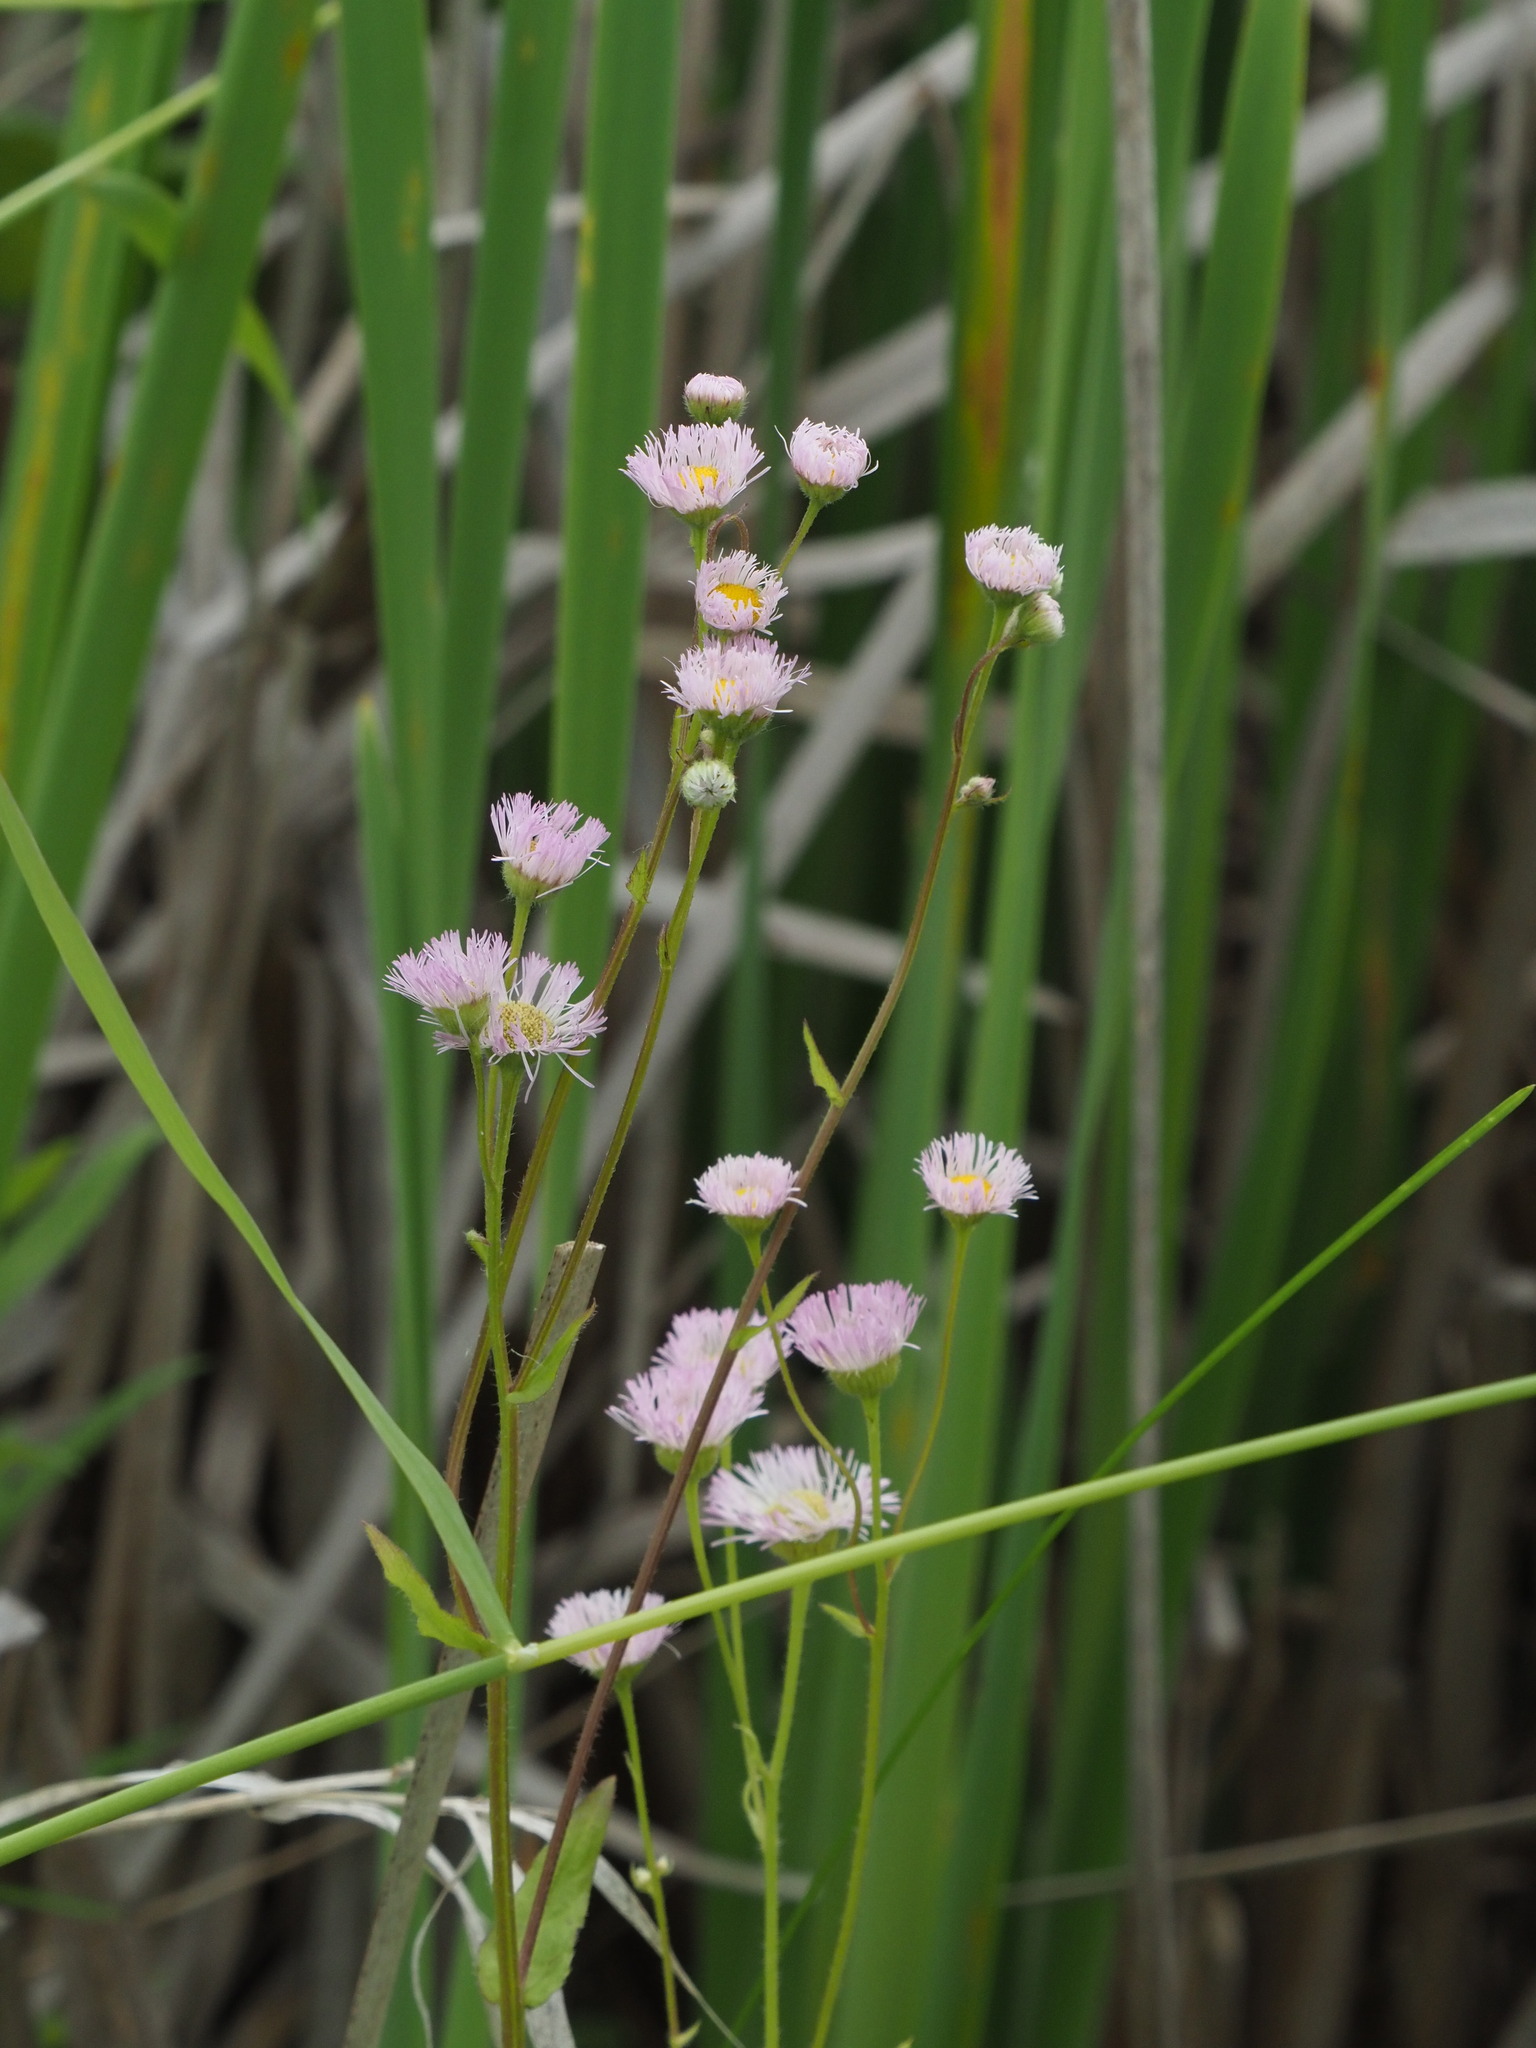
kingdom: Plantae
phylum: Tracheophyta
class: Magnoliopsida
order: Asterales
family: Asteraceae
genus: Erigeron
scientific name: Erigeron philadelphicus
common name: Robin's-plantain
